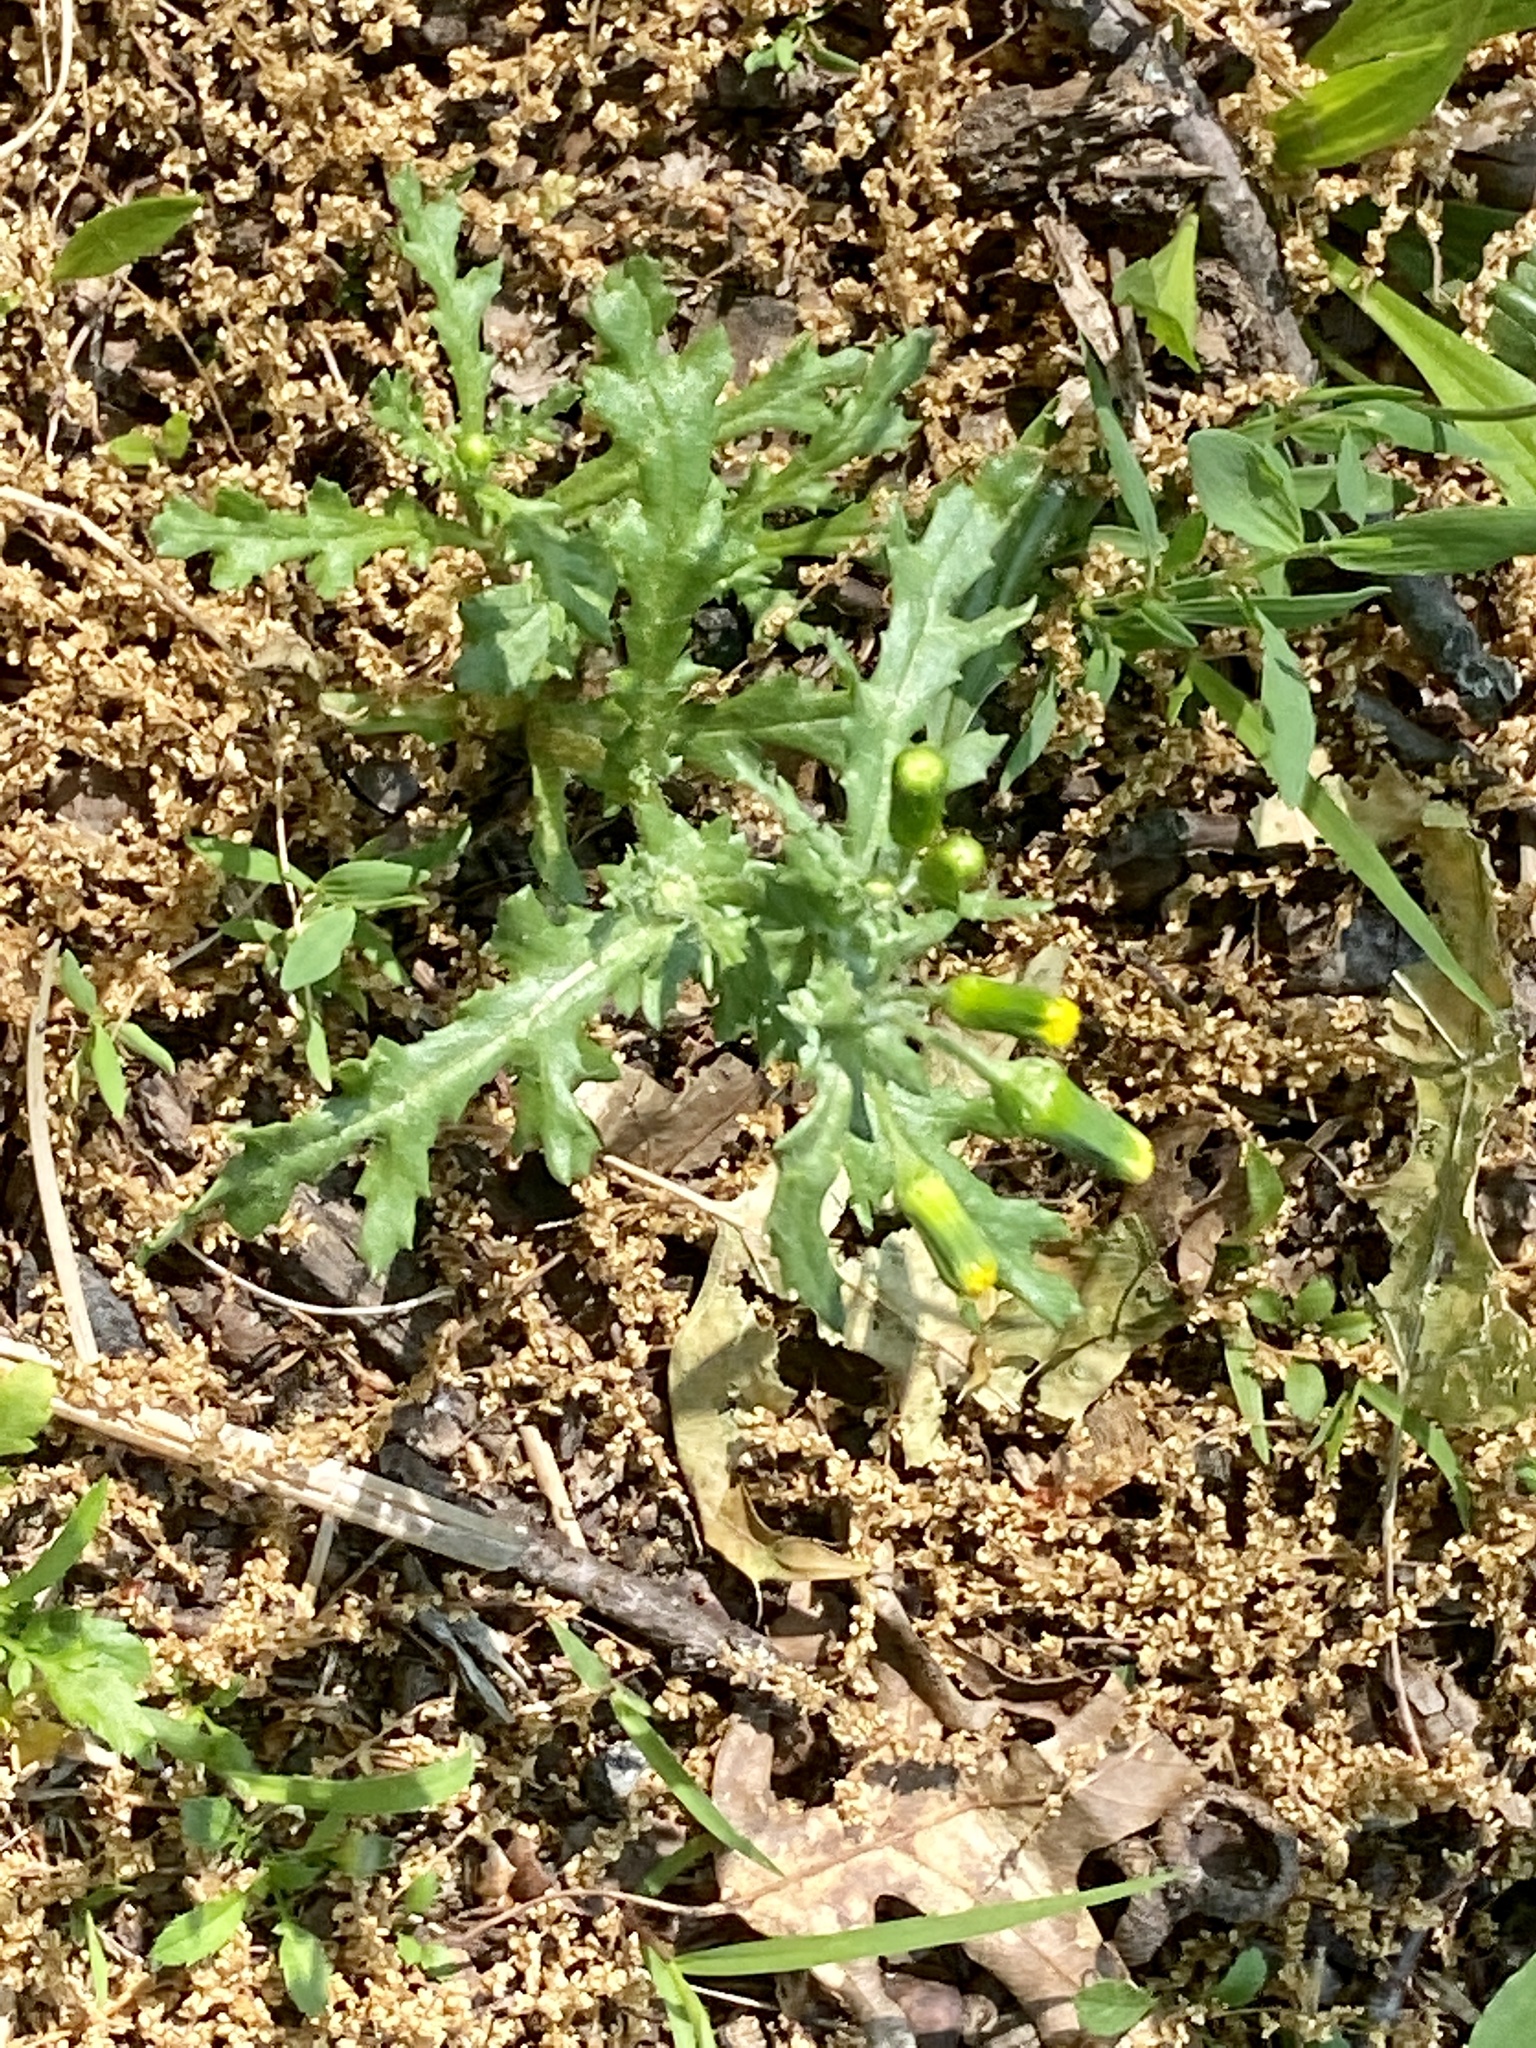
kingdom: Plantae
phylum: Tracheophyta
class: Magnoliopsida
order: Asterales
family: Asteraceae
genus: Senecio
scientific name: Senecio vulgaris
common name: Old-man-in-the-spring
